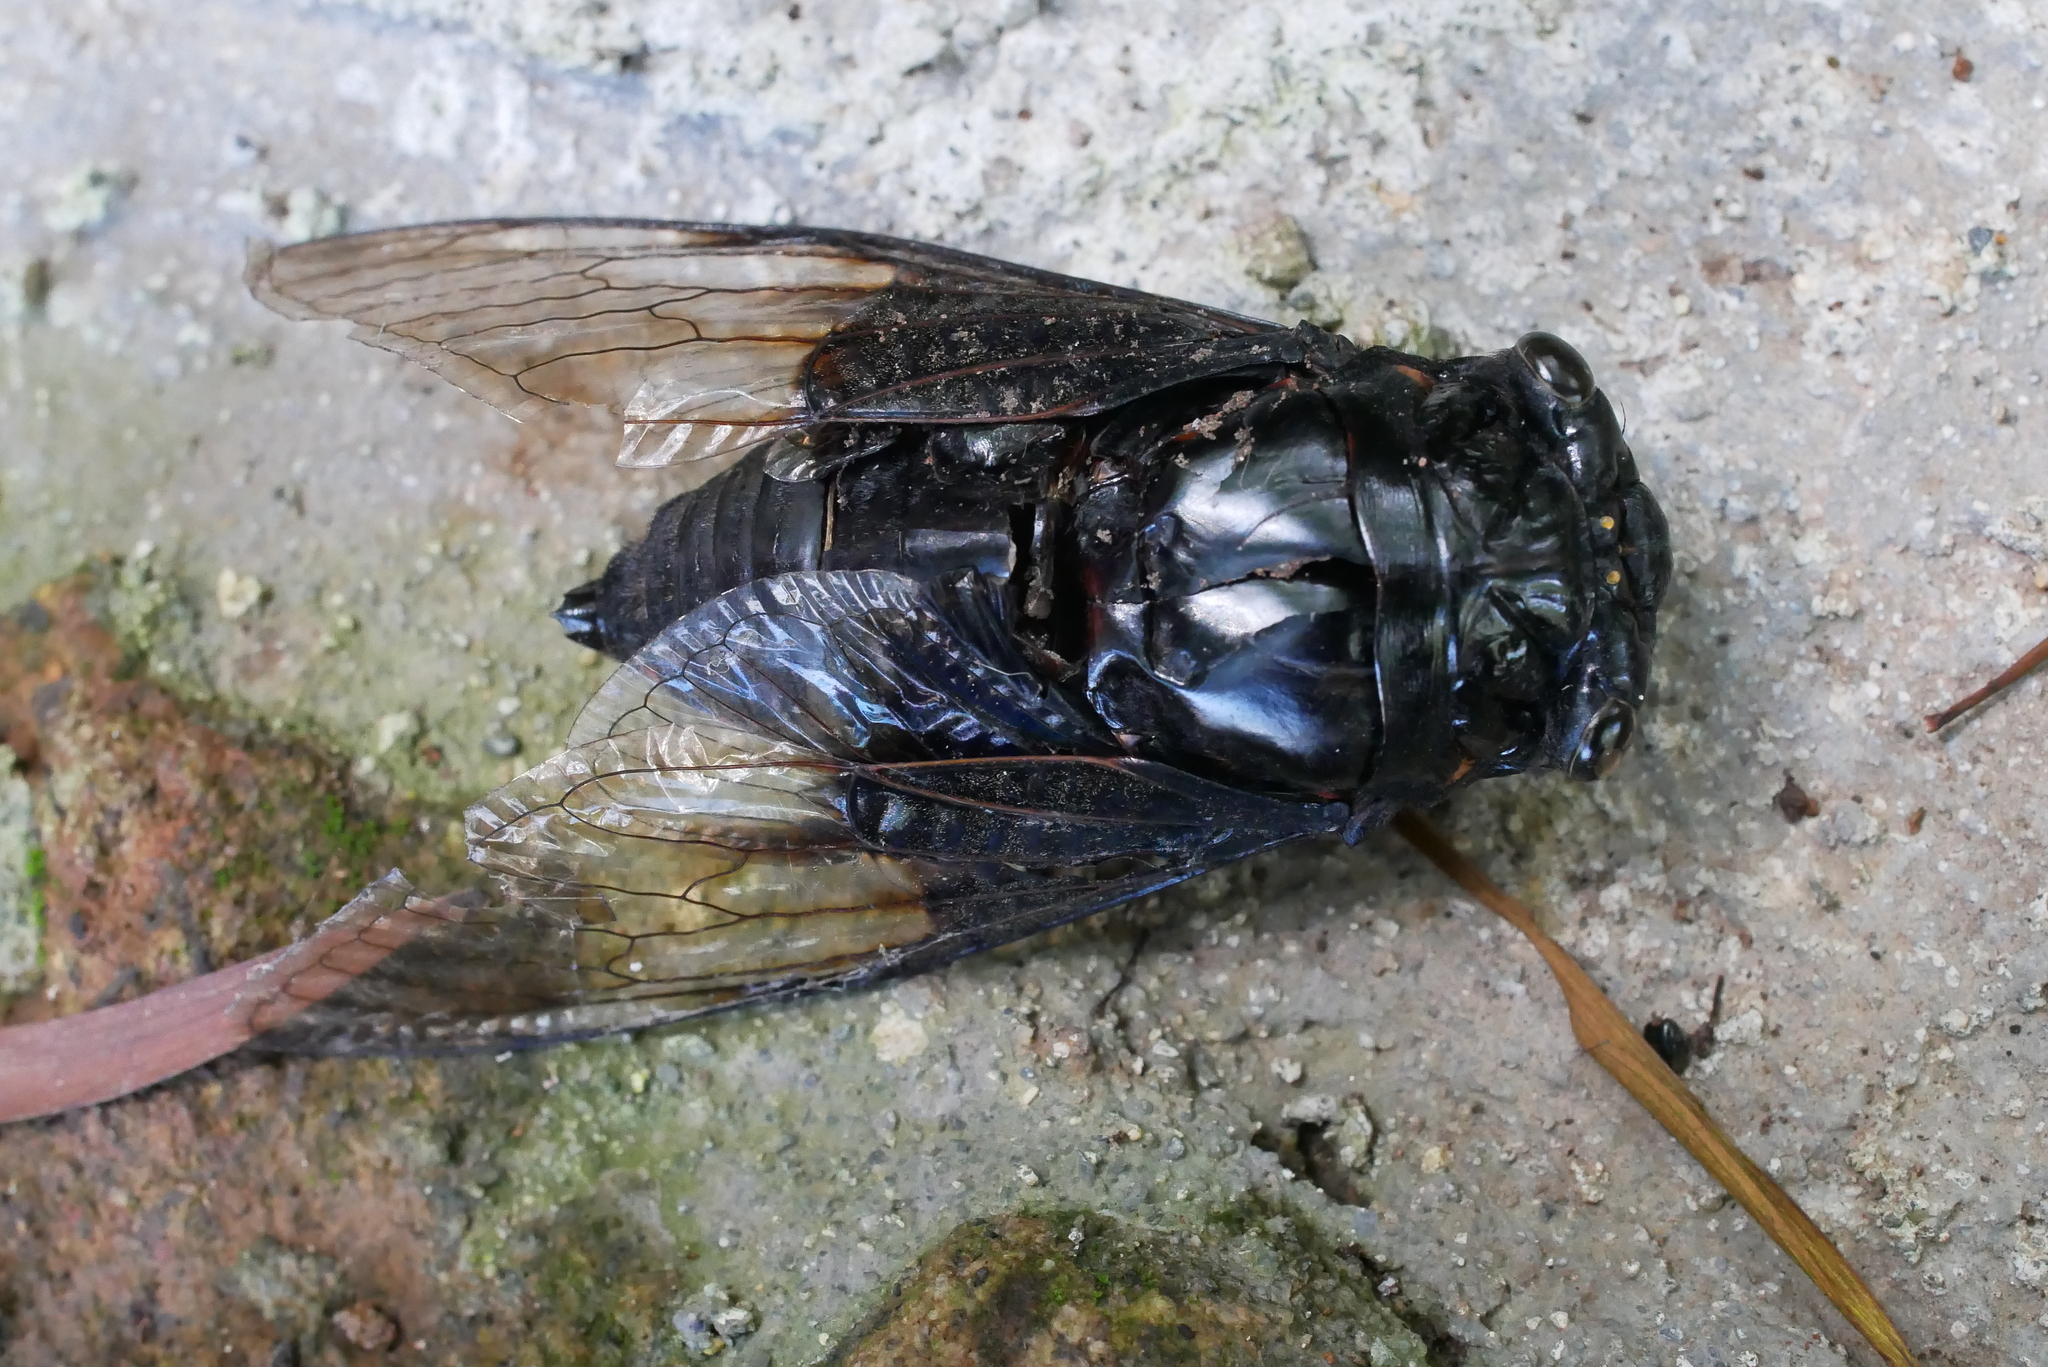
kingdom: Animalia
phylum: Arthropoda
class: Insecta
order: Hemiptera
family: Cicadidae
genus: Cryptotympana
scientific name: Cryptotympana holsti
